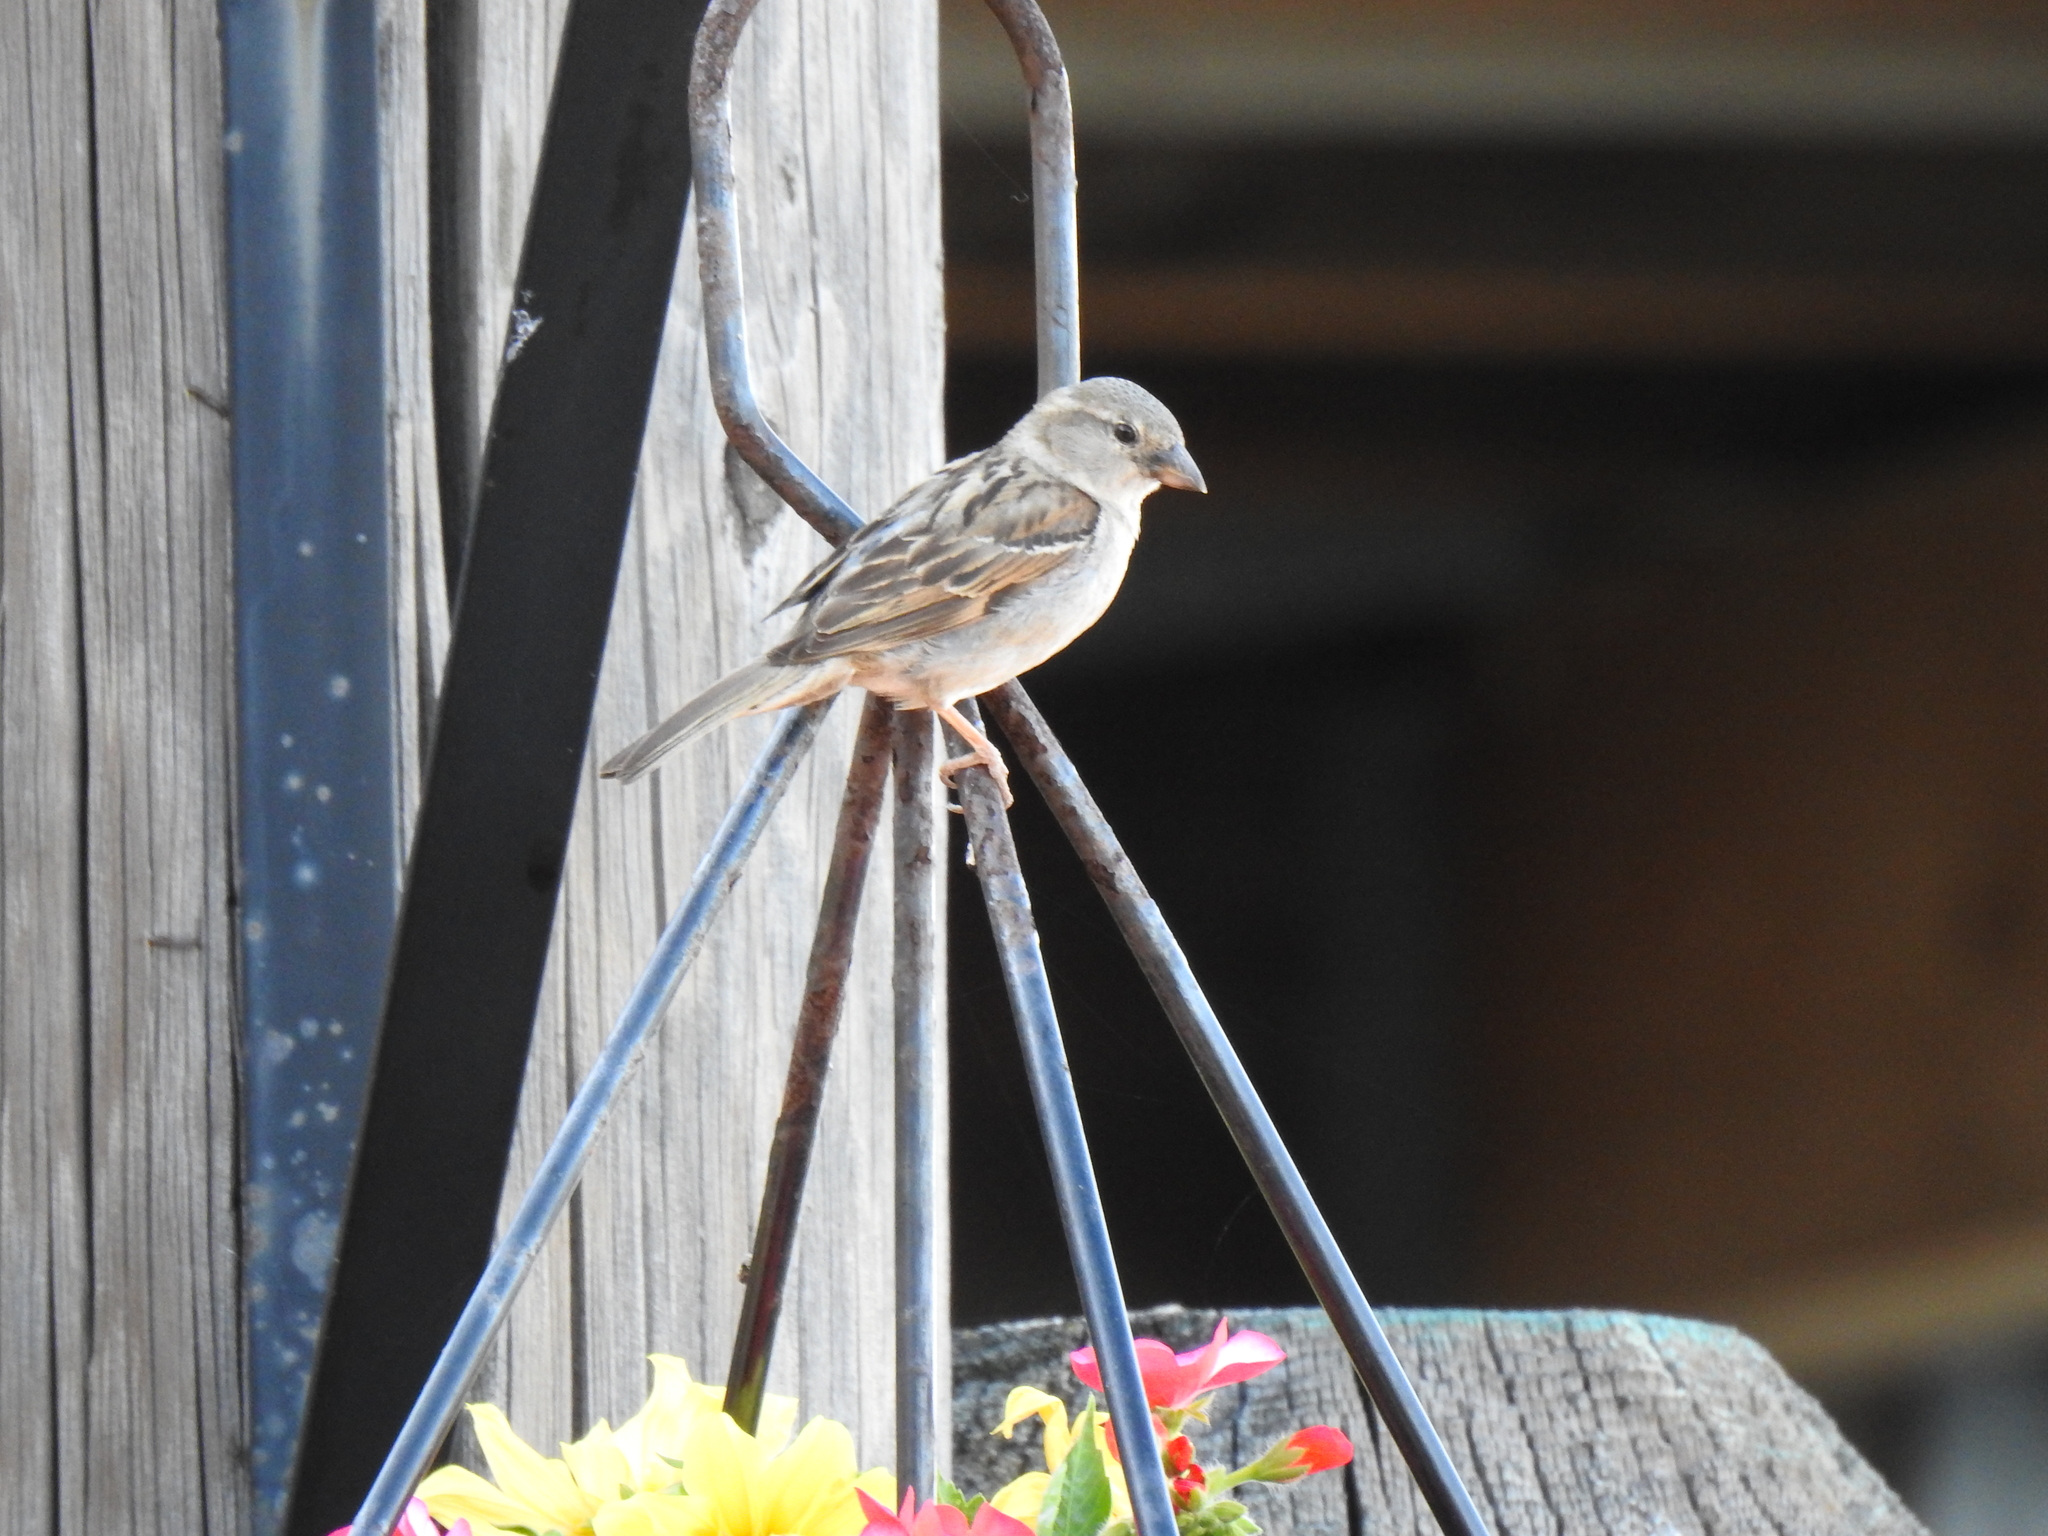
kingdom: Animalia
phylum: Chordata
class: Aves
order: Passeriformes
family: Passeridae
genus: Passer
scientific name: Passer domesticus
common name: House sparrow
